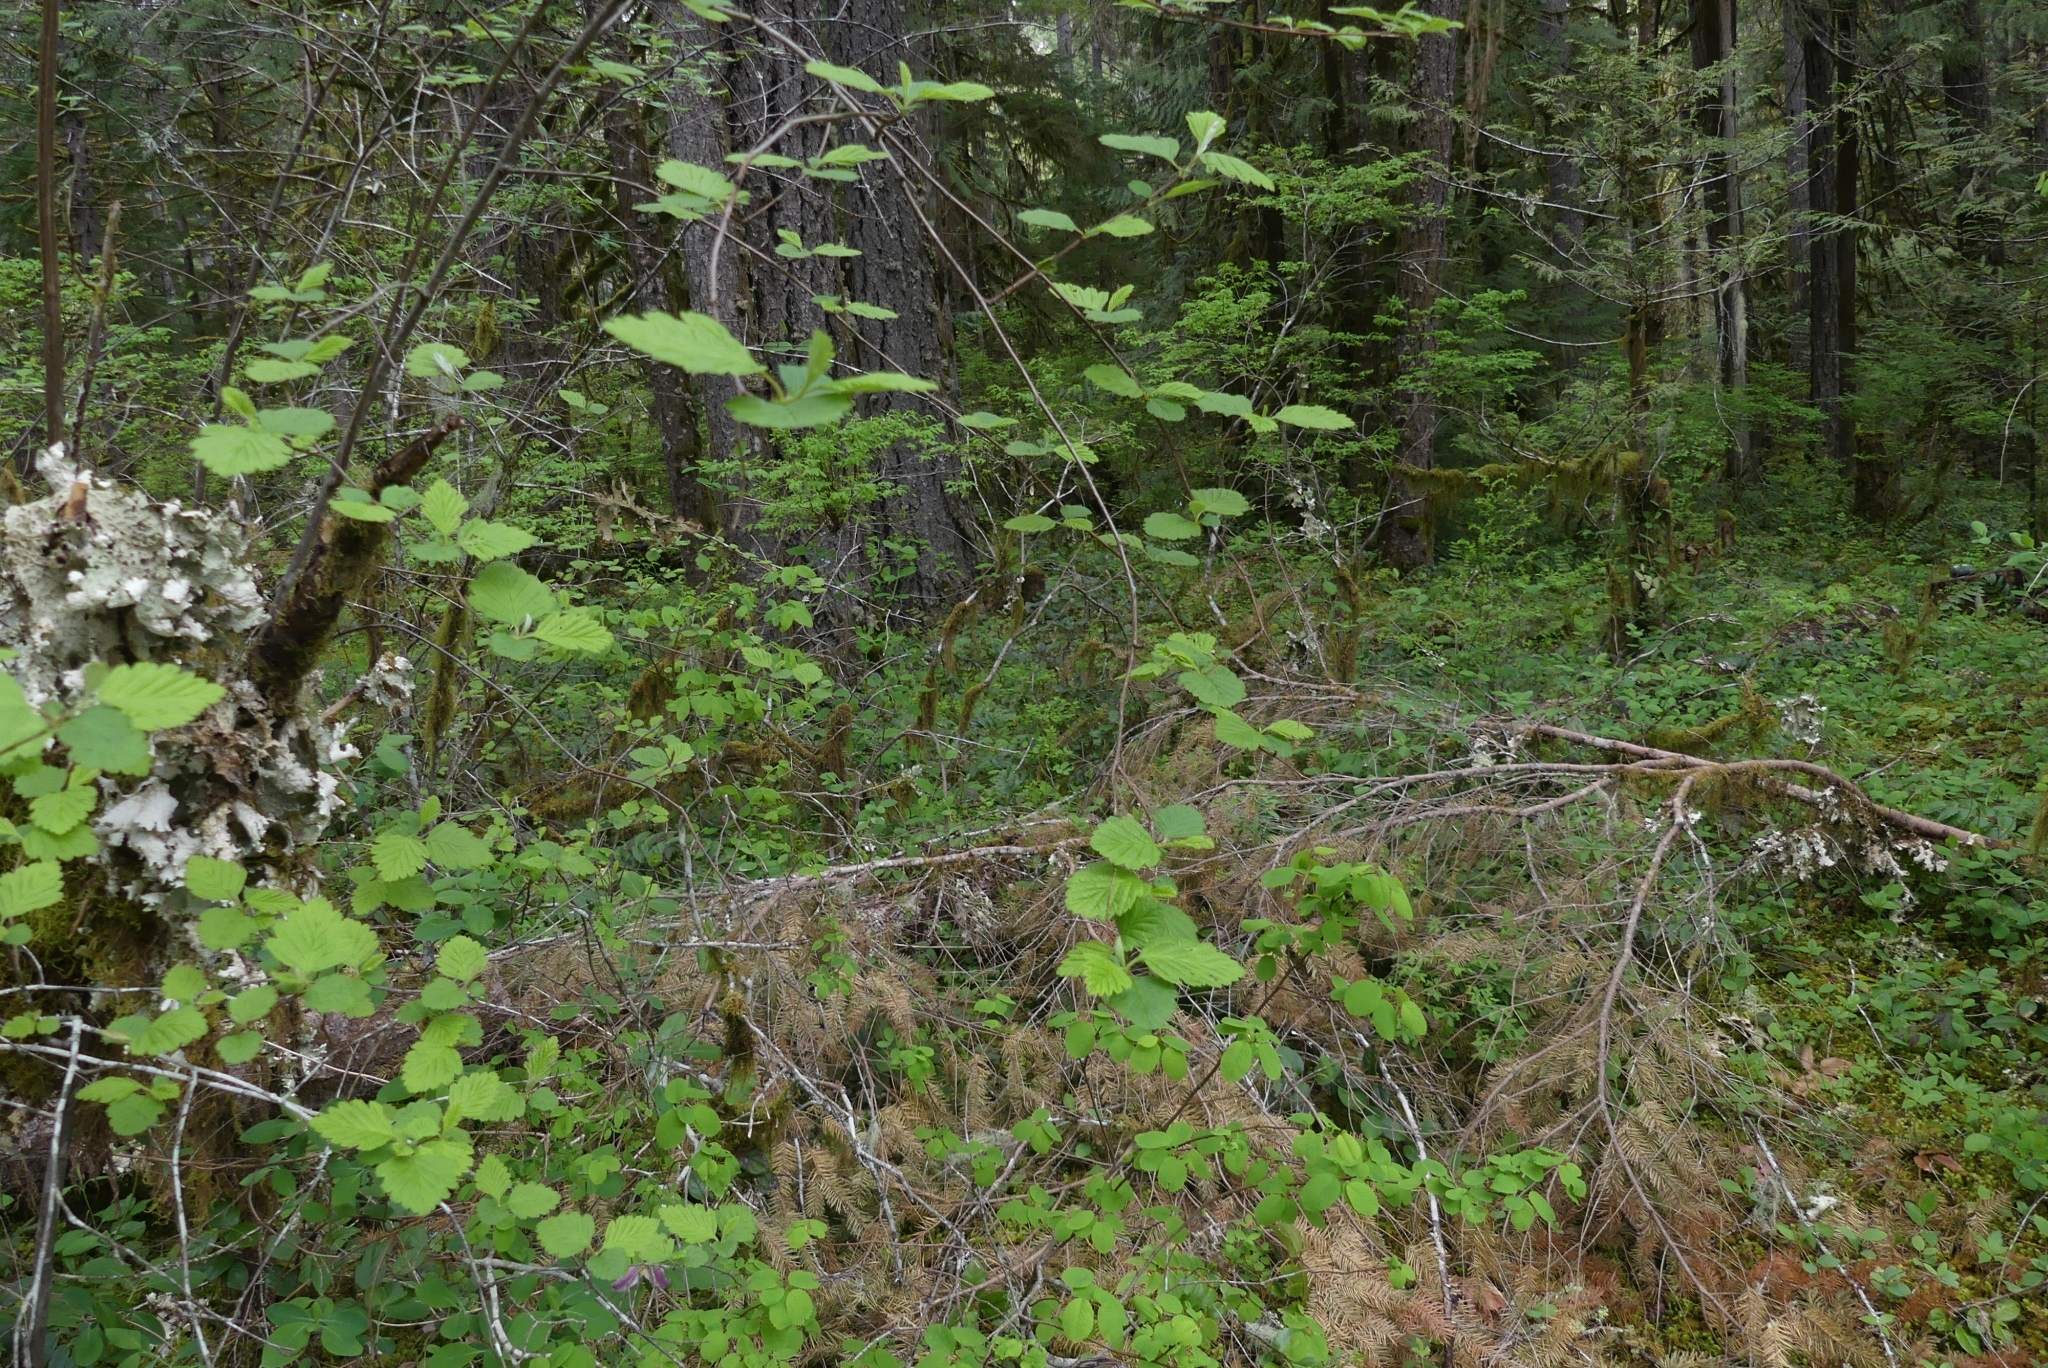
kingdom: Plantae
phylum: Tracheophyta
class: Magnoliopsida
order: Rosales
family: Rosaceae
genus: Holodiscus
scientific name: Holodiscus discolor
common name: Oceanspray
